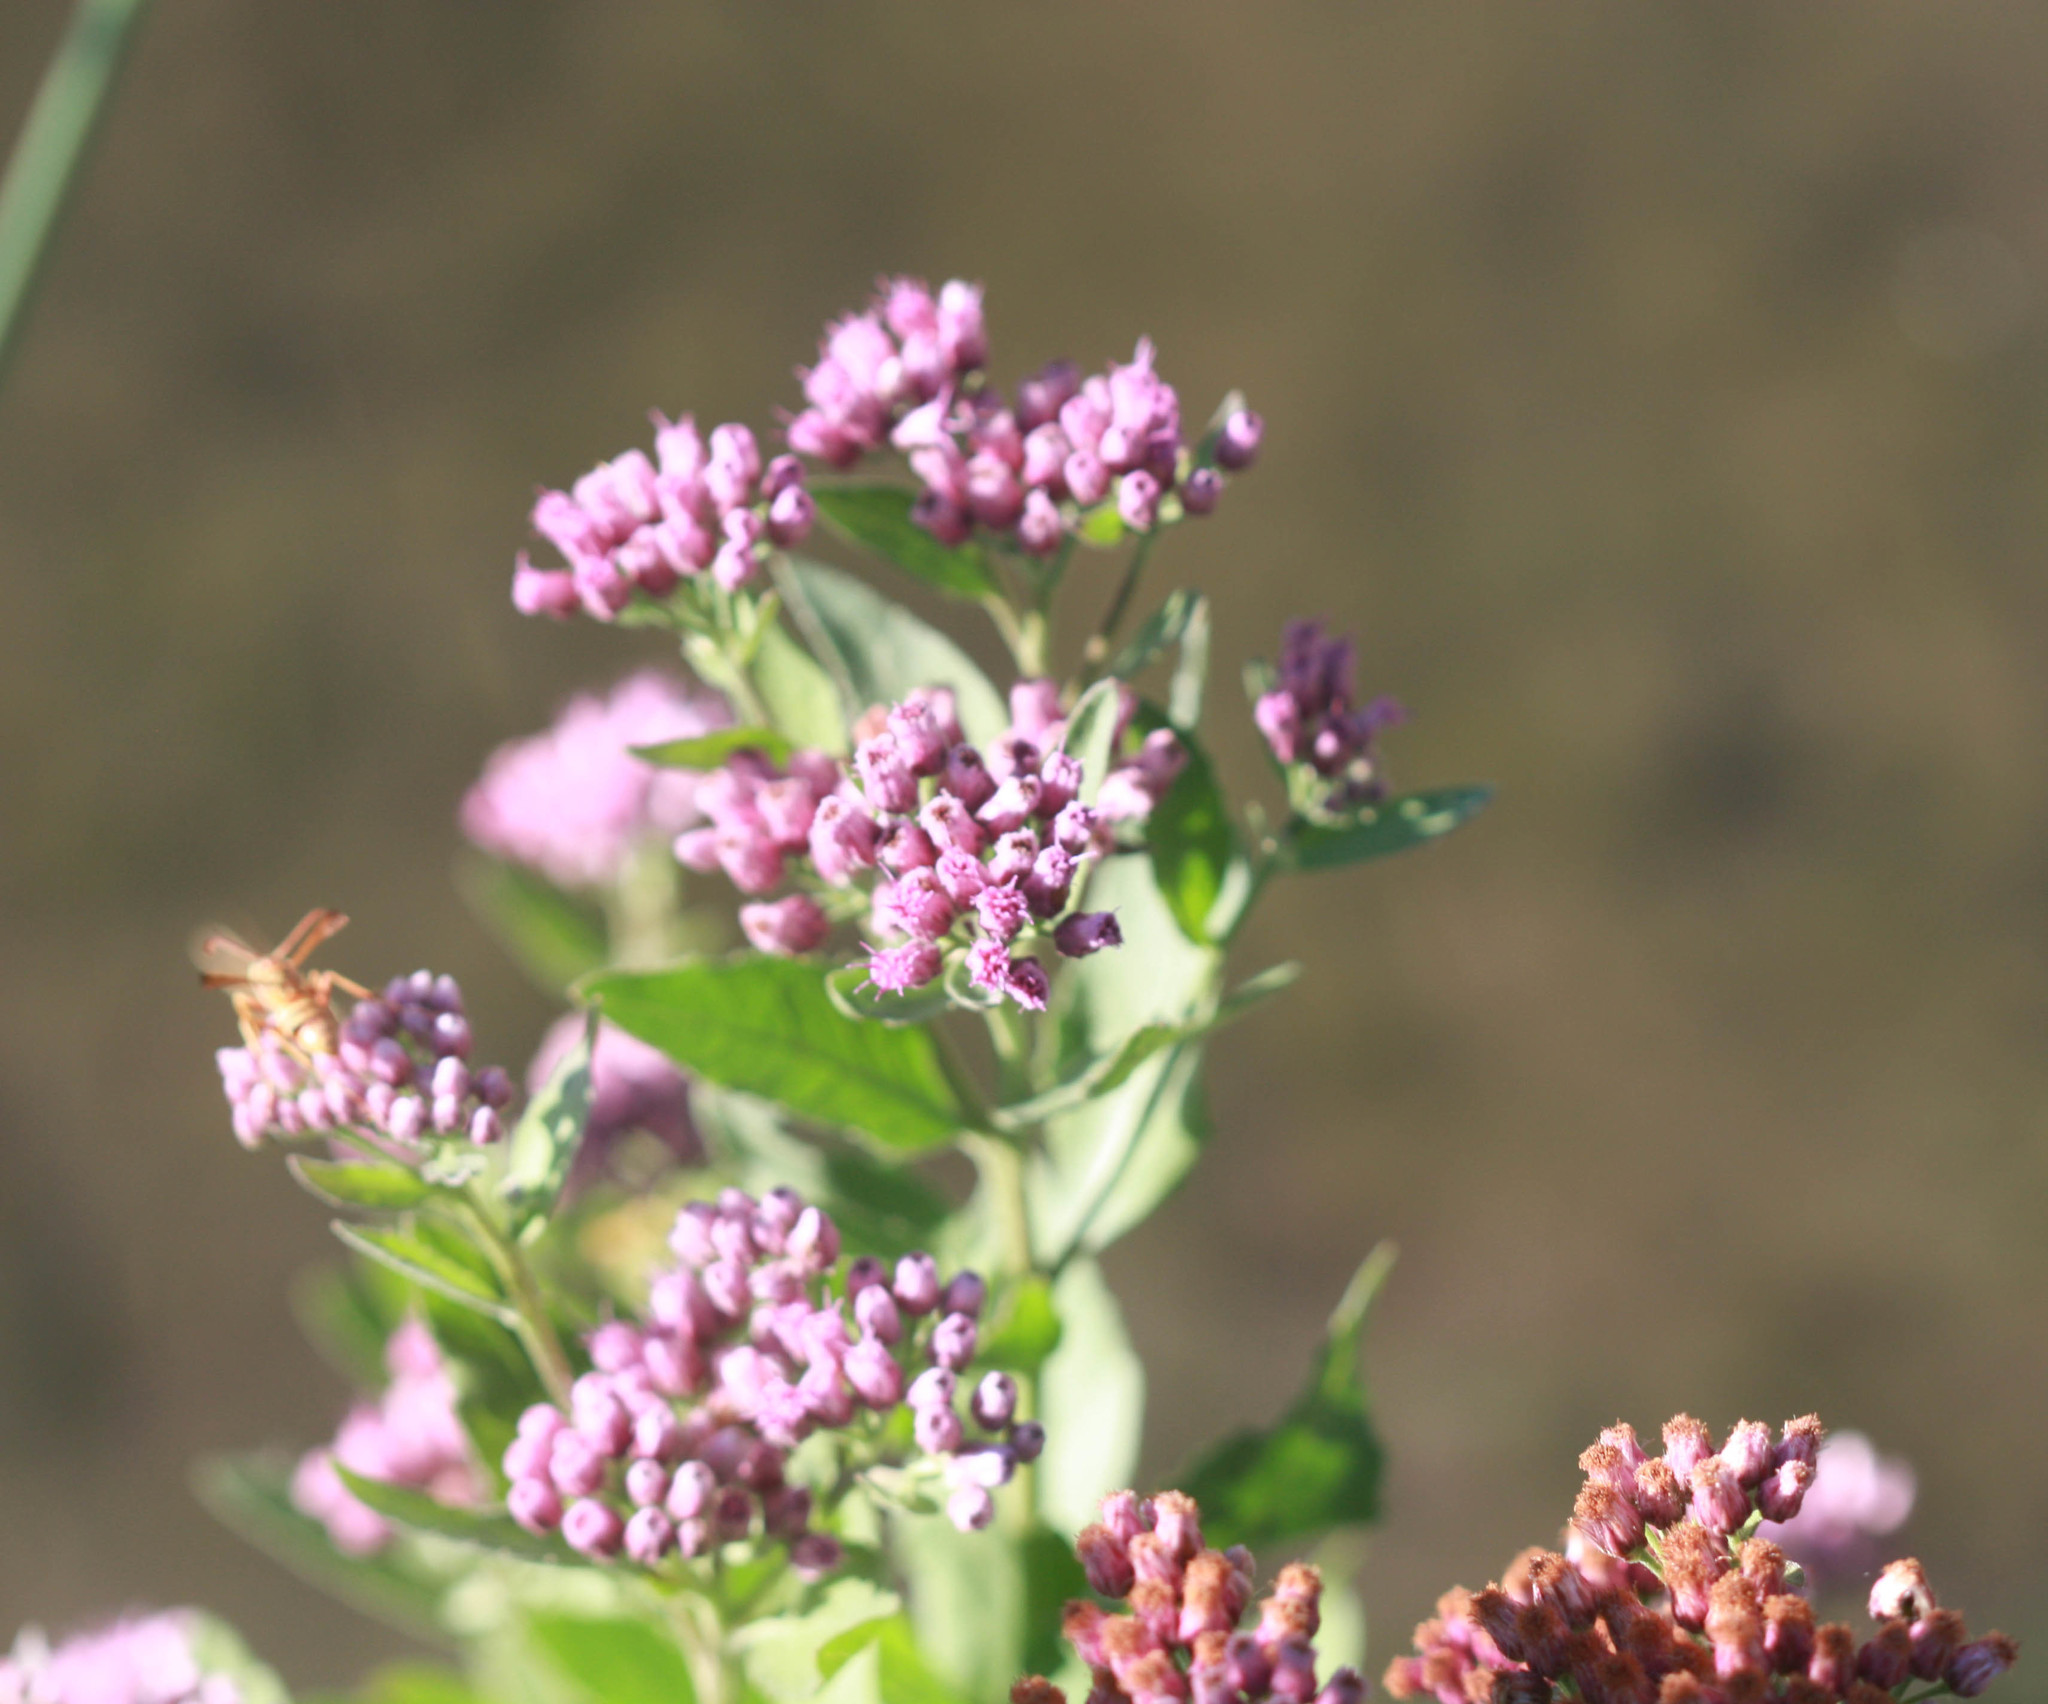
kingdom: Plantae
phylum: Tracheophyta
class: Magnoliopsida
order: Asterales
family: Asteraceae
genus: Pluchea
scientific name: Pluchea odorata
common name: Saltmarsh fleabane
